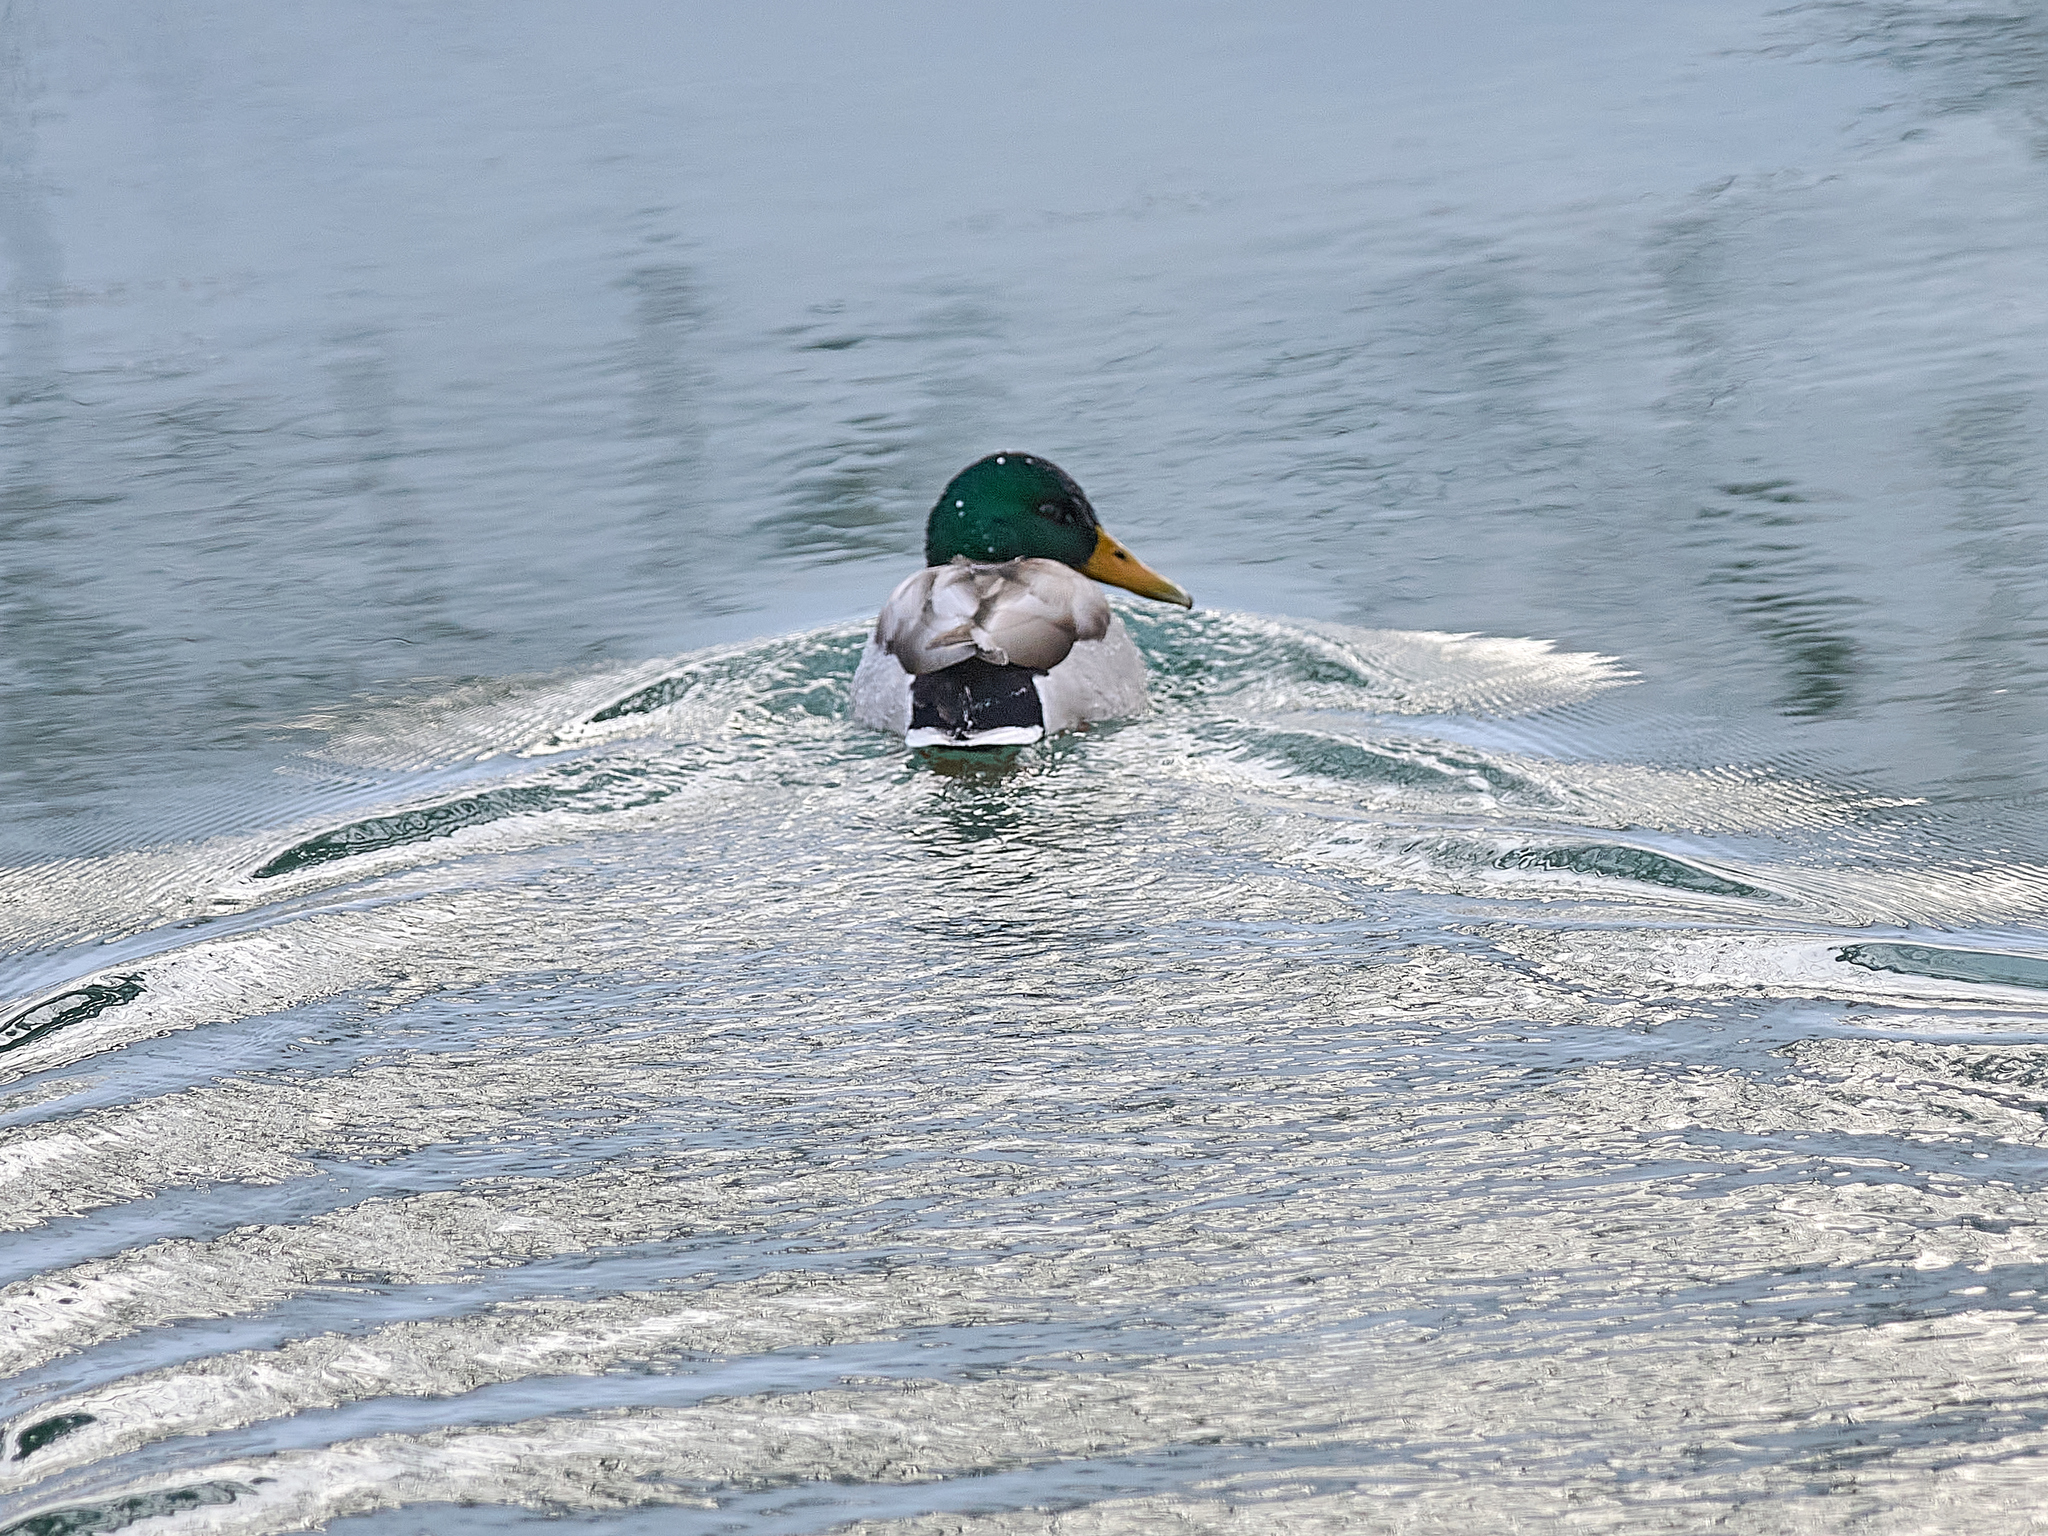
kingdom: Animalia
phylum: Chordata
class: Aves
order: Anseriformes
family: Anatidae
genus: Anas
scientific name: Anas platyrhynchos
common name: Mallard
